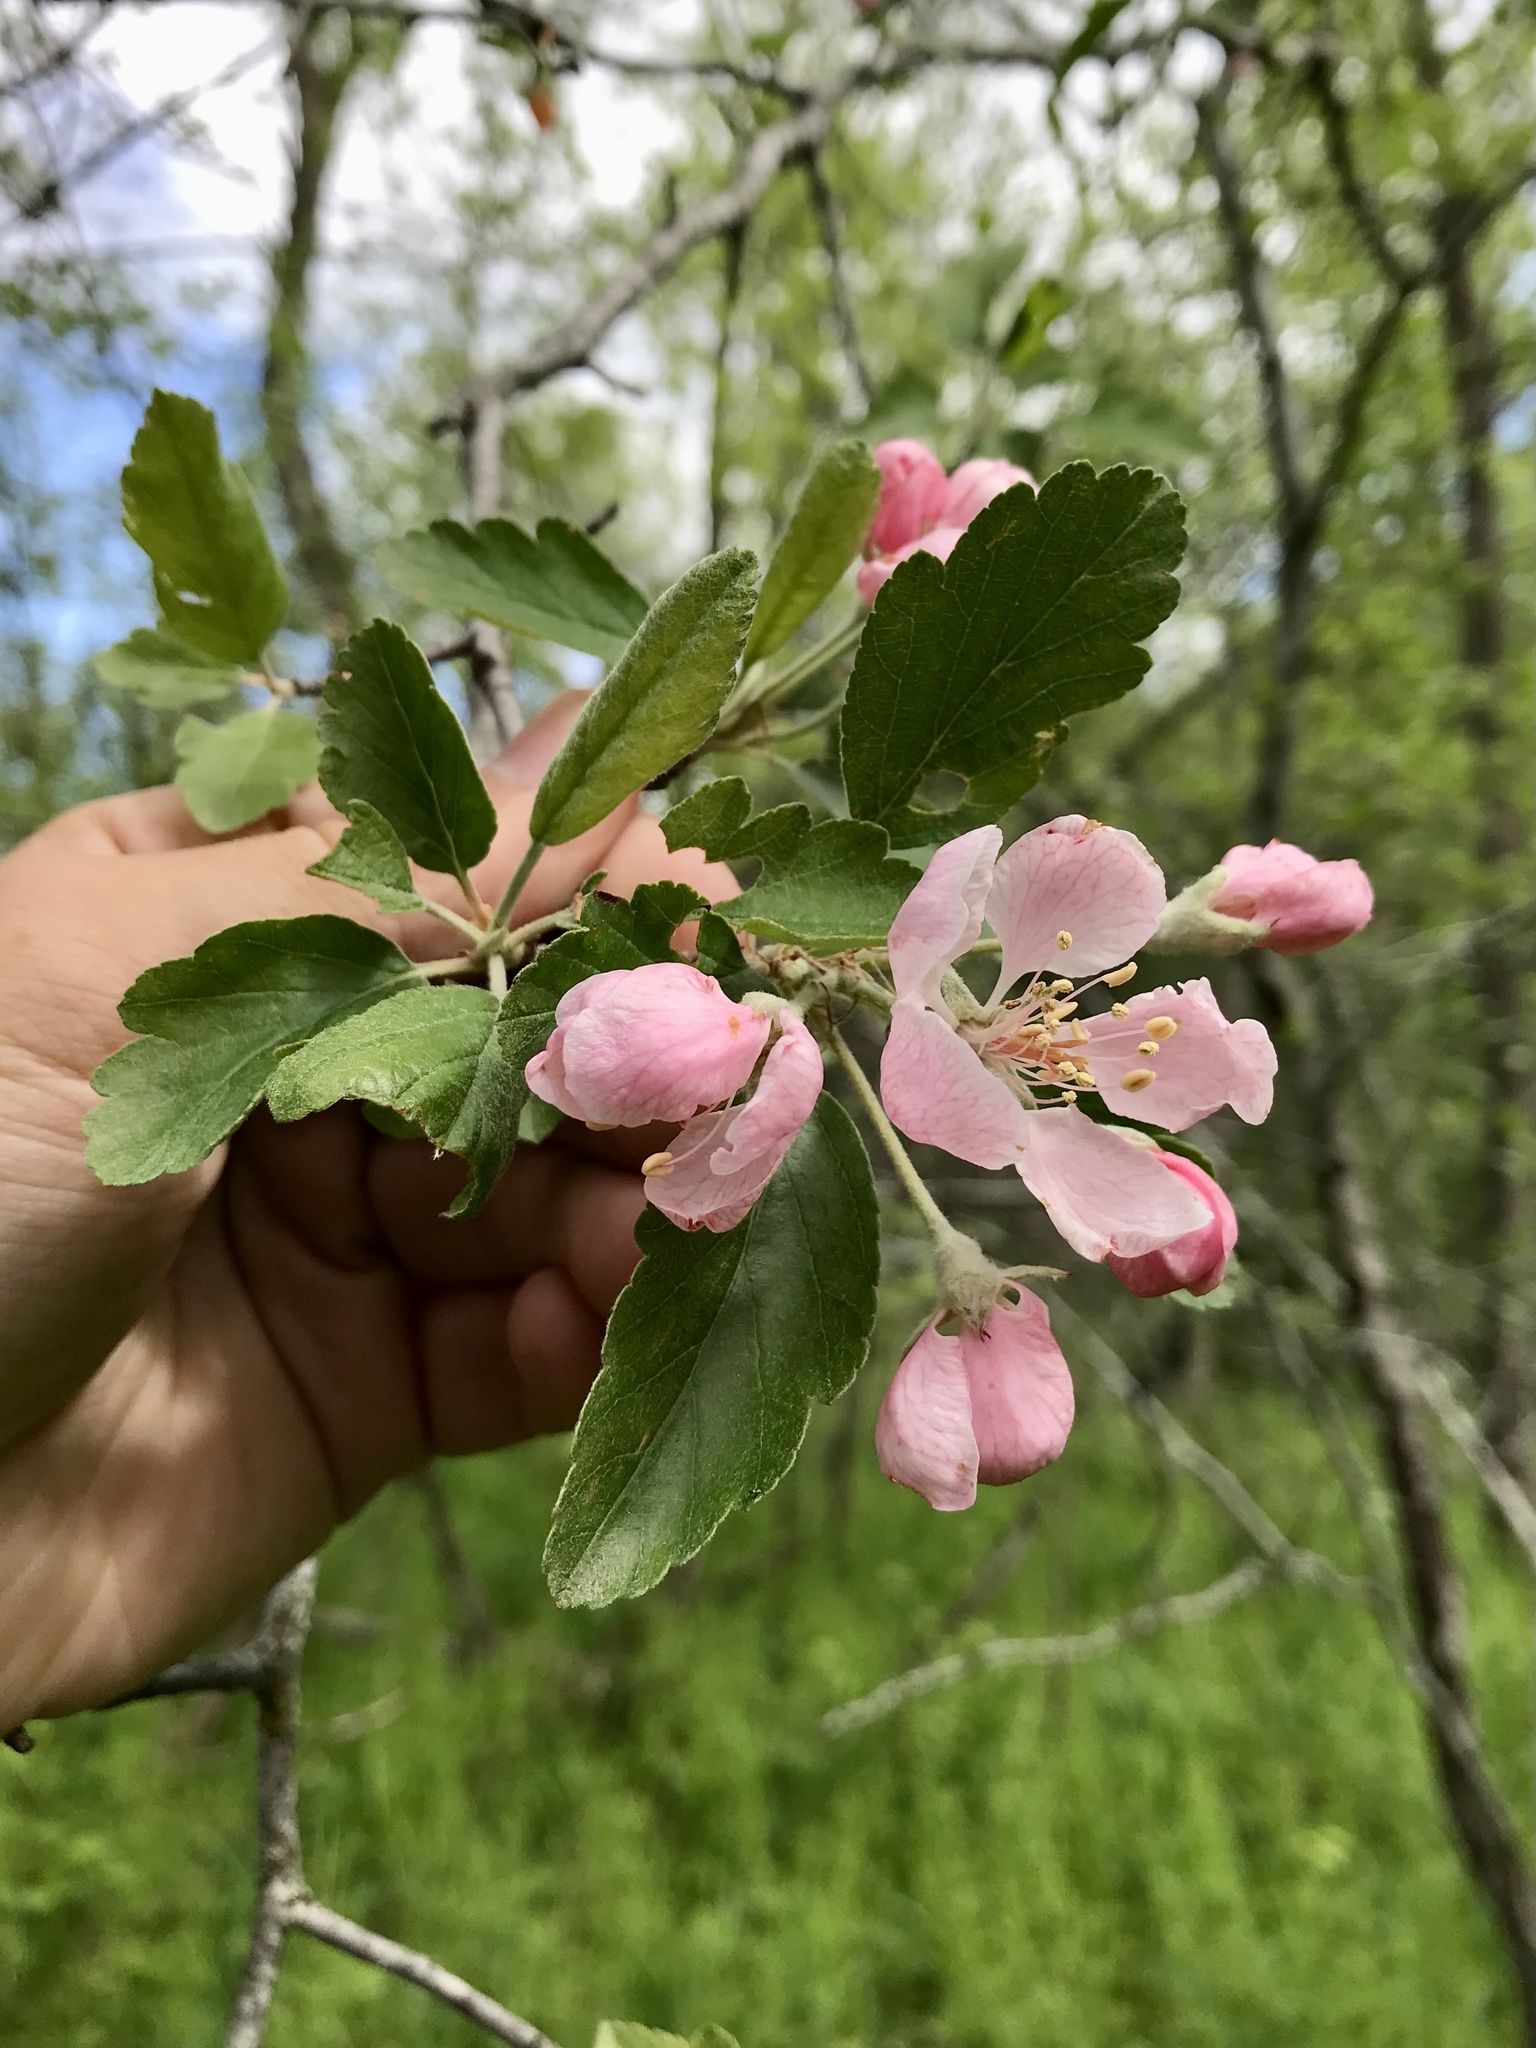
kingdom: Plantae
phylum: Tracheophyta
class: Magnoliopsida
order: Rosales
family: Rosaceae
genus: Malus
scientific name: Malus ioensis
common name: Iowa crab apple
